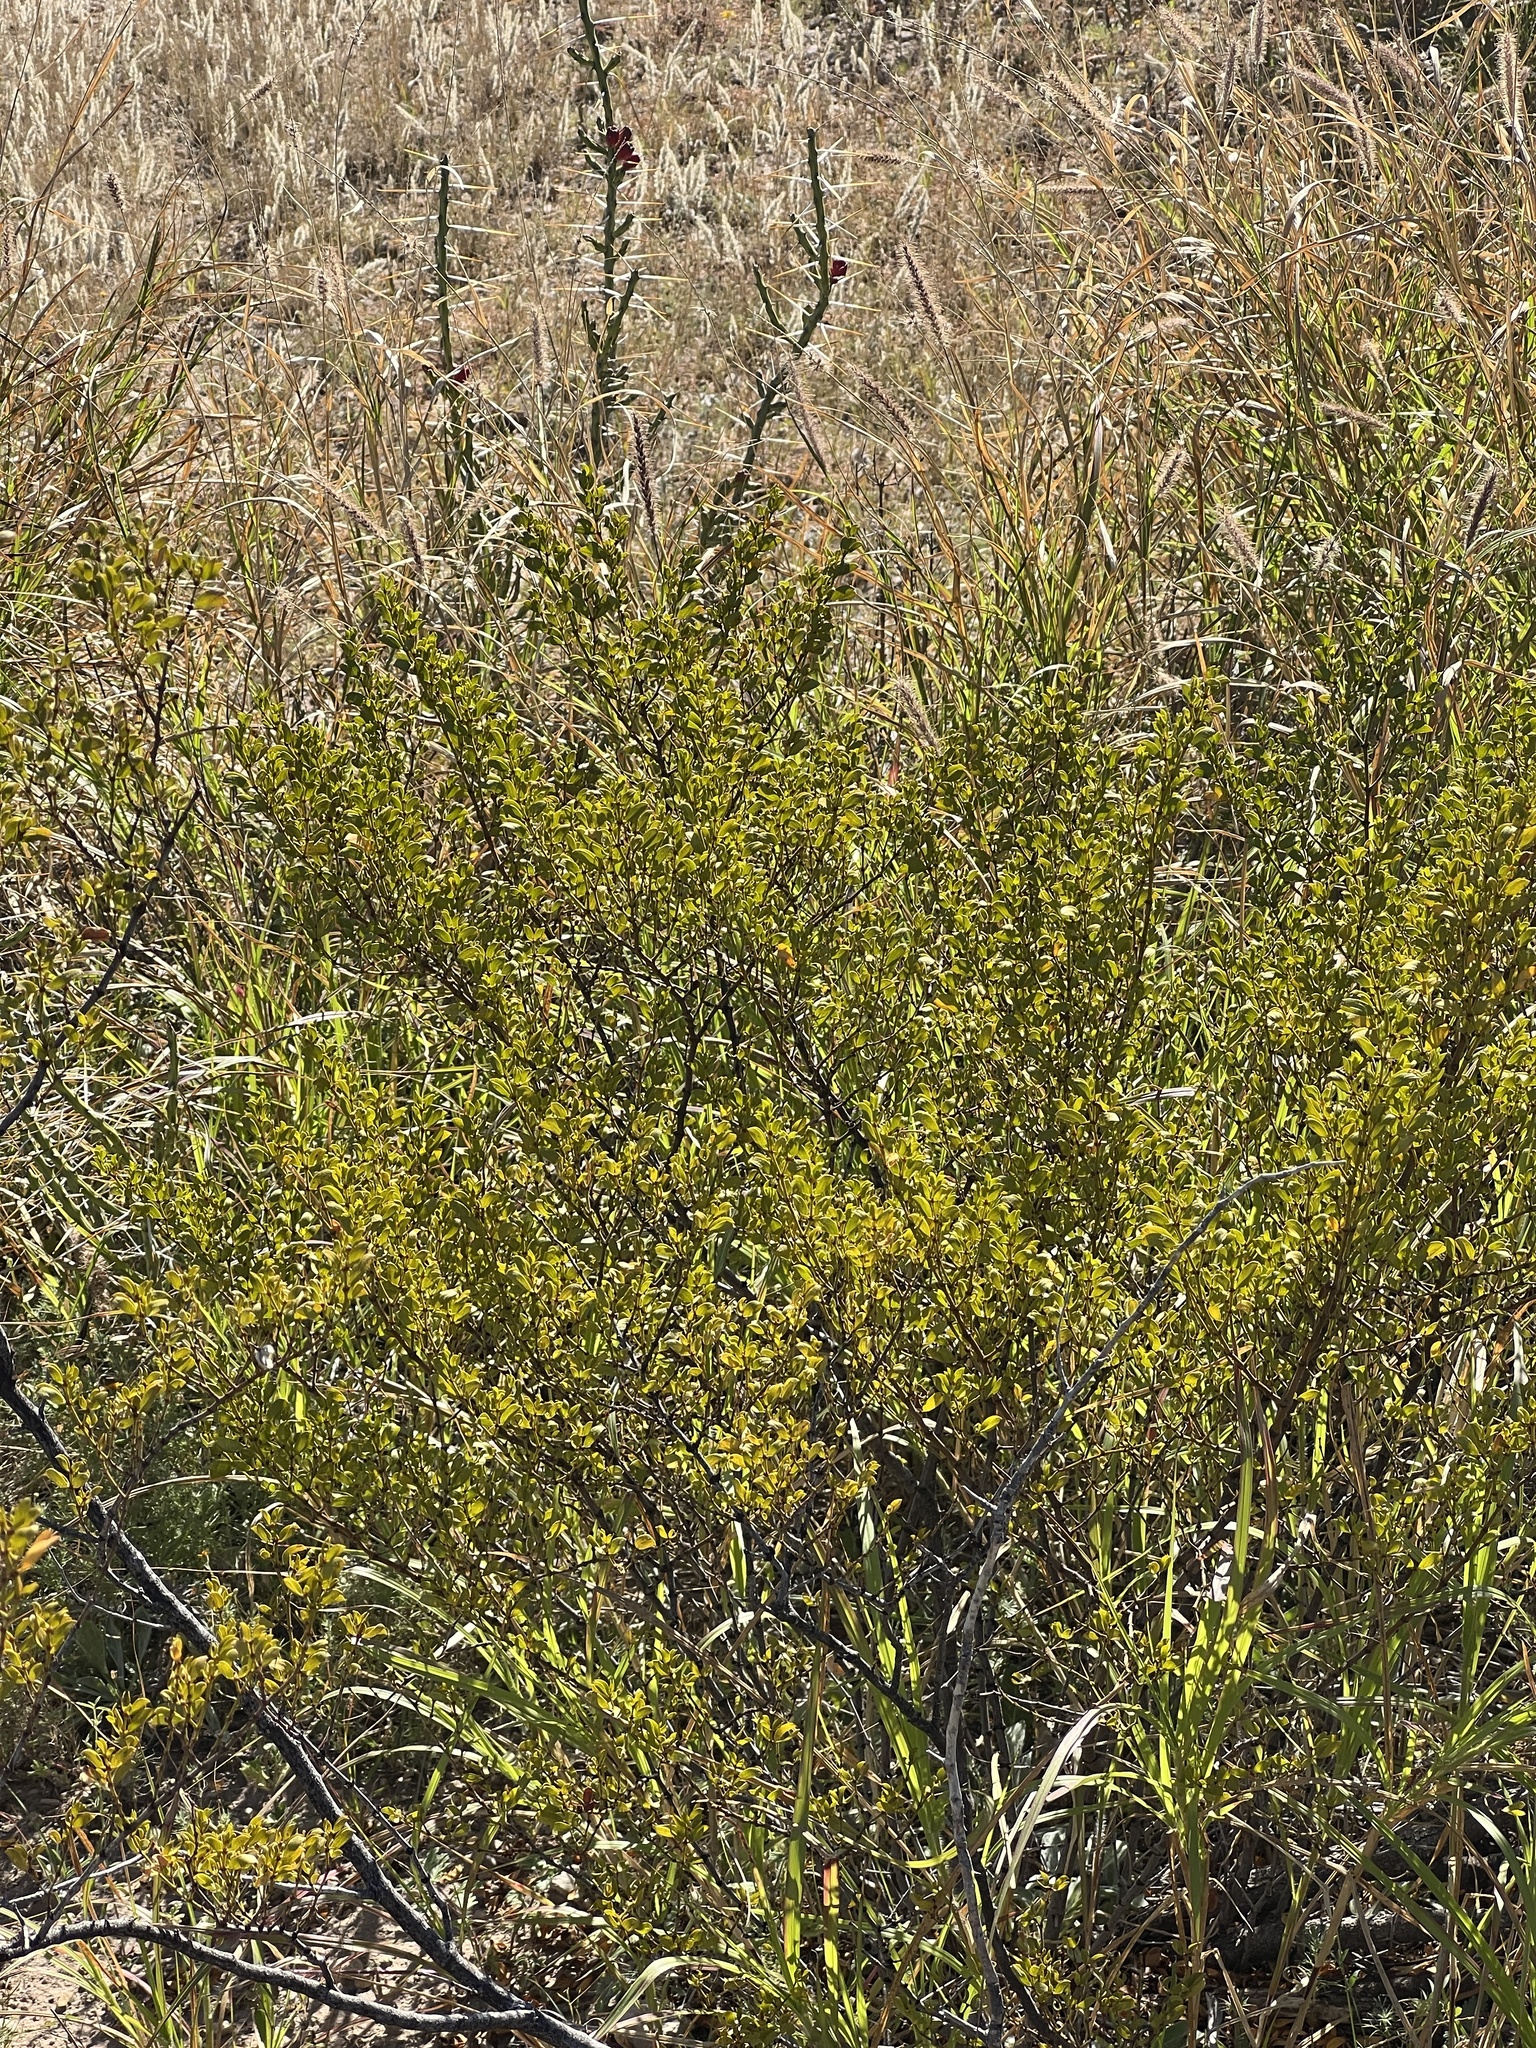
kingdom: Plantae
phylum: Tracheophyta
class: Magnoliopsida
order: Zygophyllales
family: Zygophyllaceae
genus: Larrea
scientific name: Larrea tridentata
